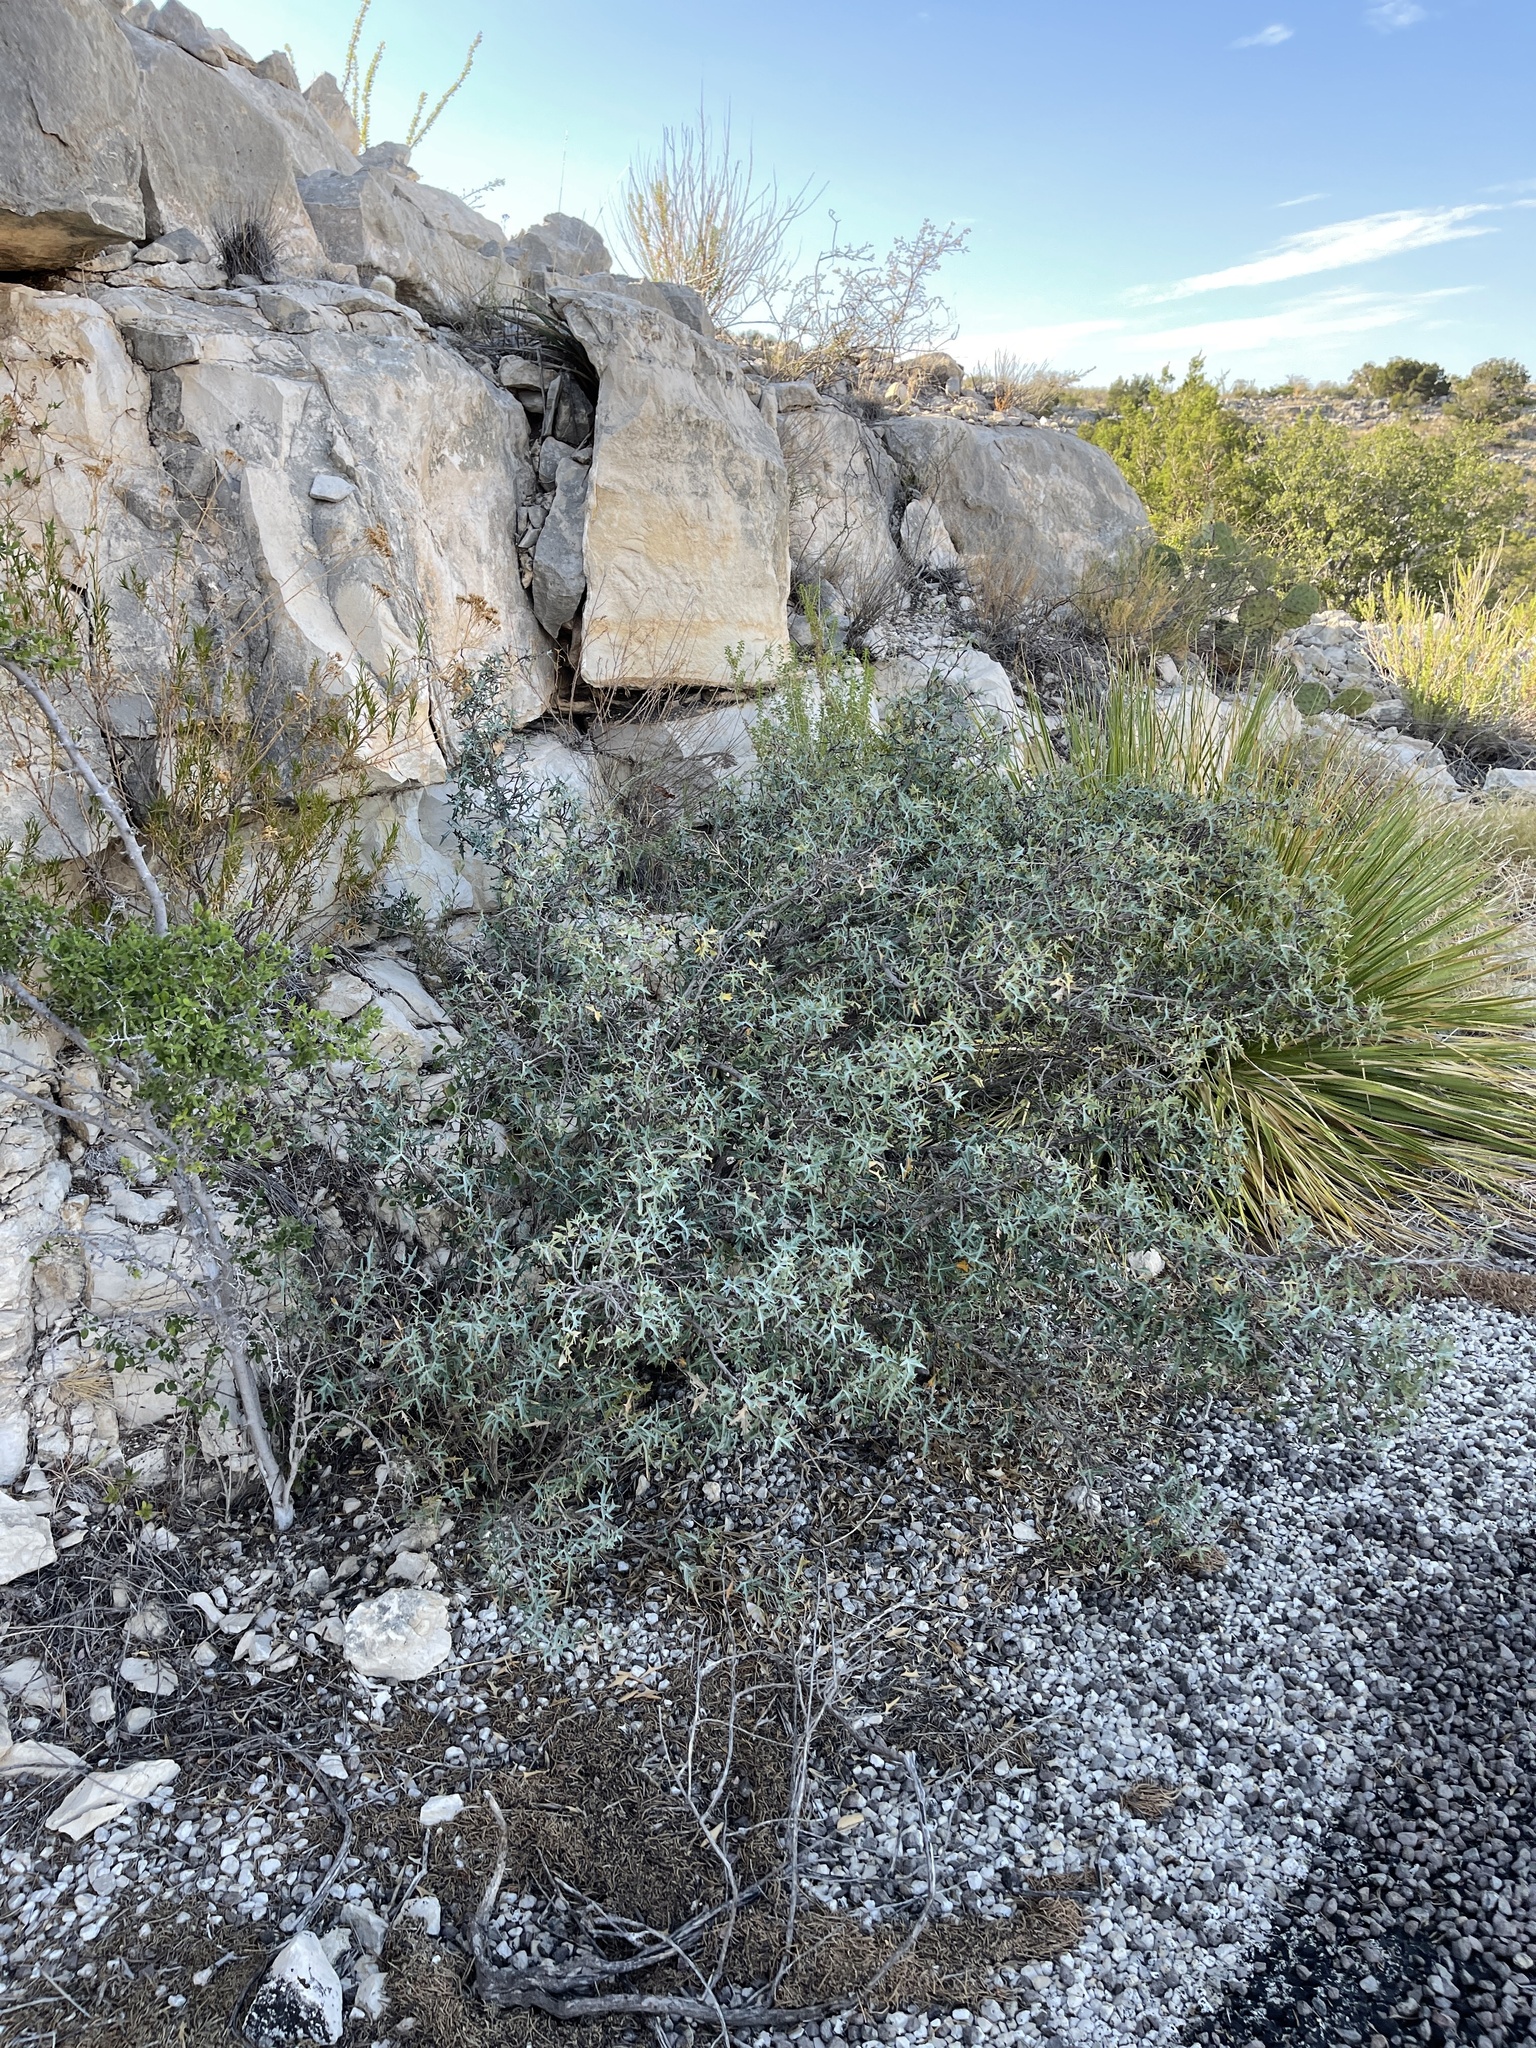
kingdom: Plantae
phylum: Tracheophyta
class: Magnoliopsida
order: Ranunculales
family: Berberidaceae
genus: Alloberberis
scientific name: Alloberberis trifoliolata
